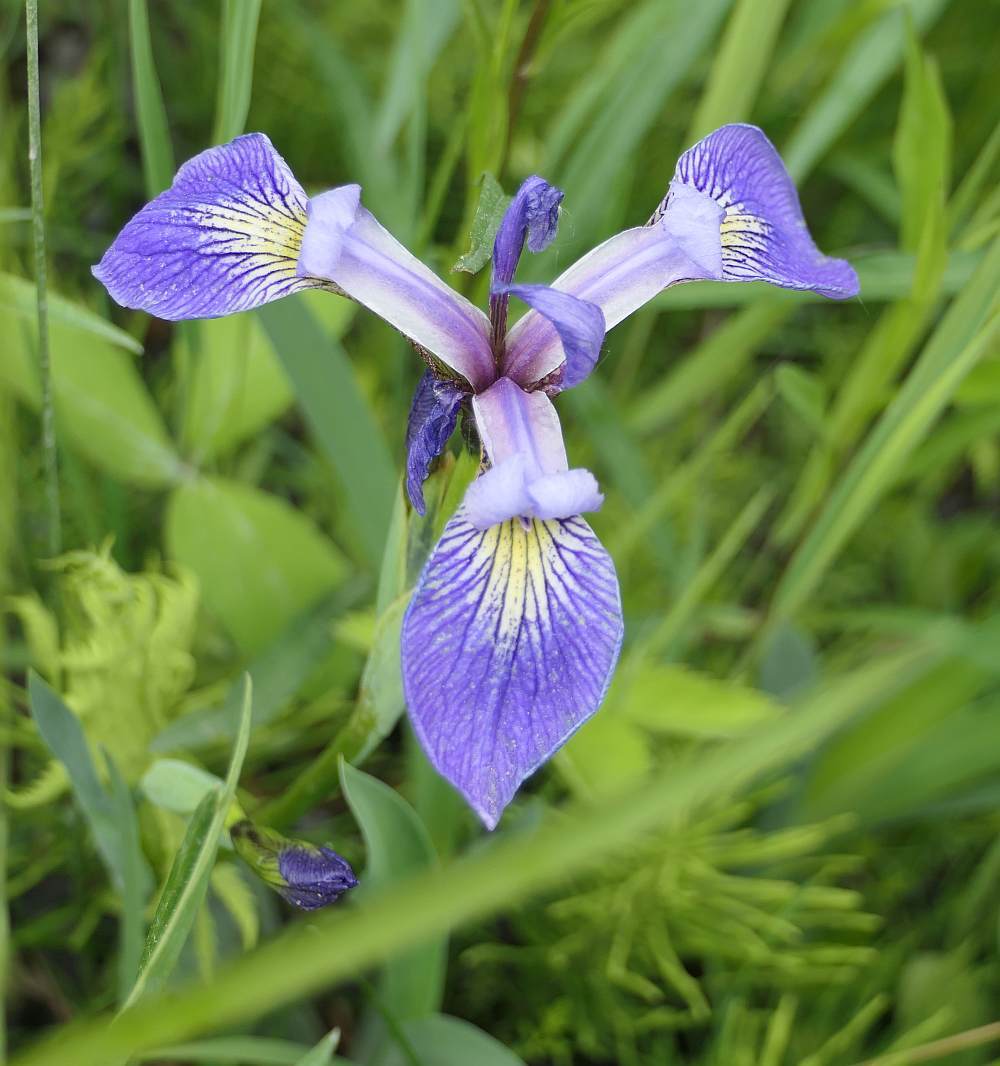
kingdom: Plantae
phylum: Tracheophyta
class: Liliopsida
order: Asparagales
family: Iridaceae
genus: Iris
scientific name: Iris versicolor
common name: Purple iris
